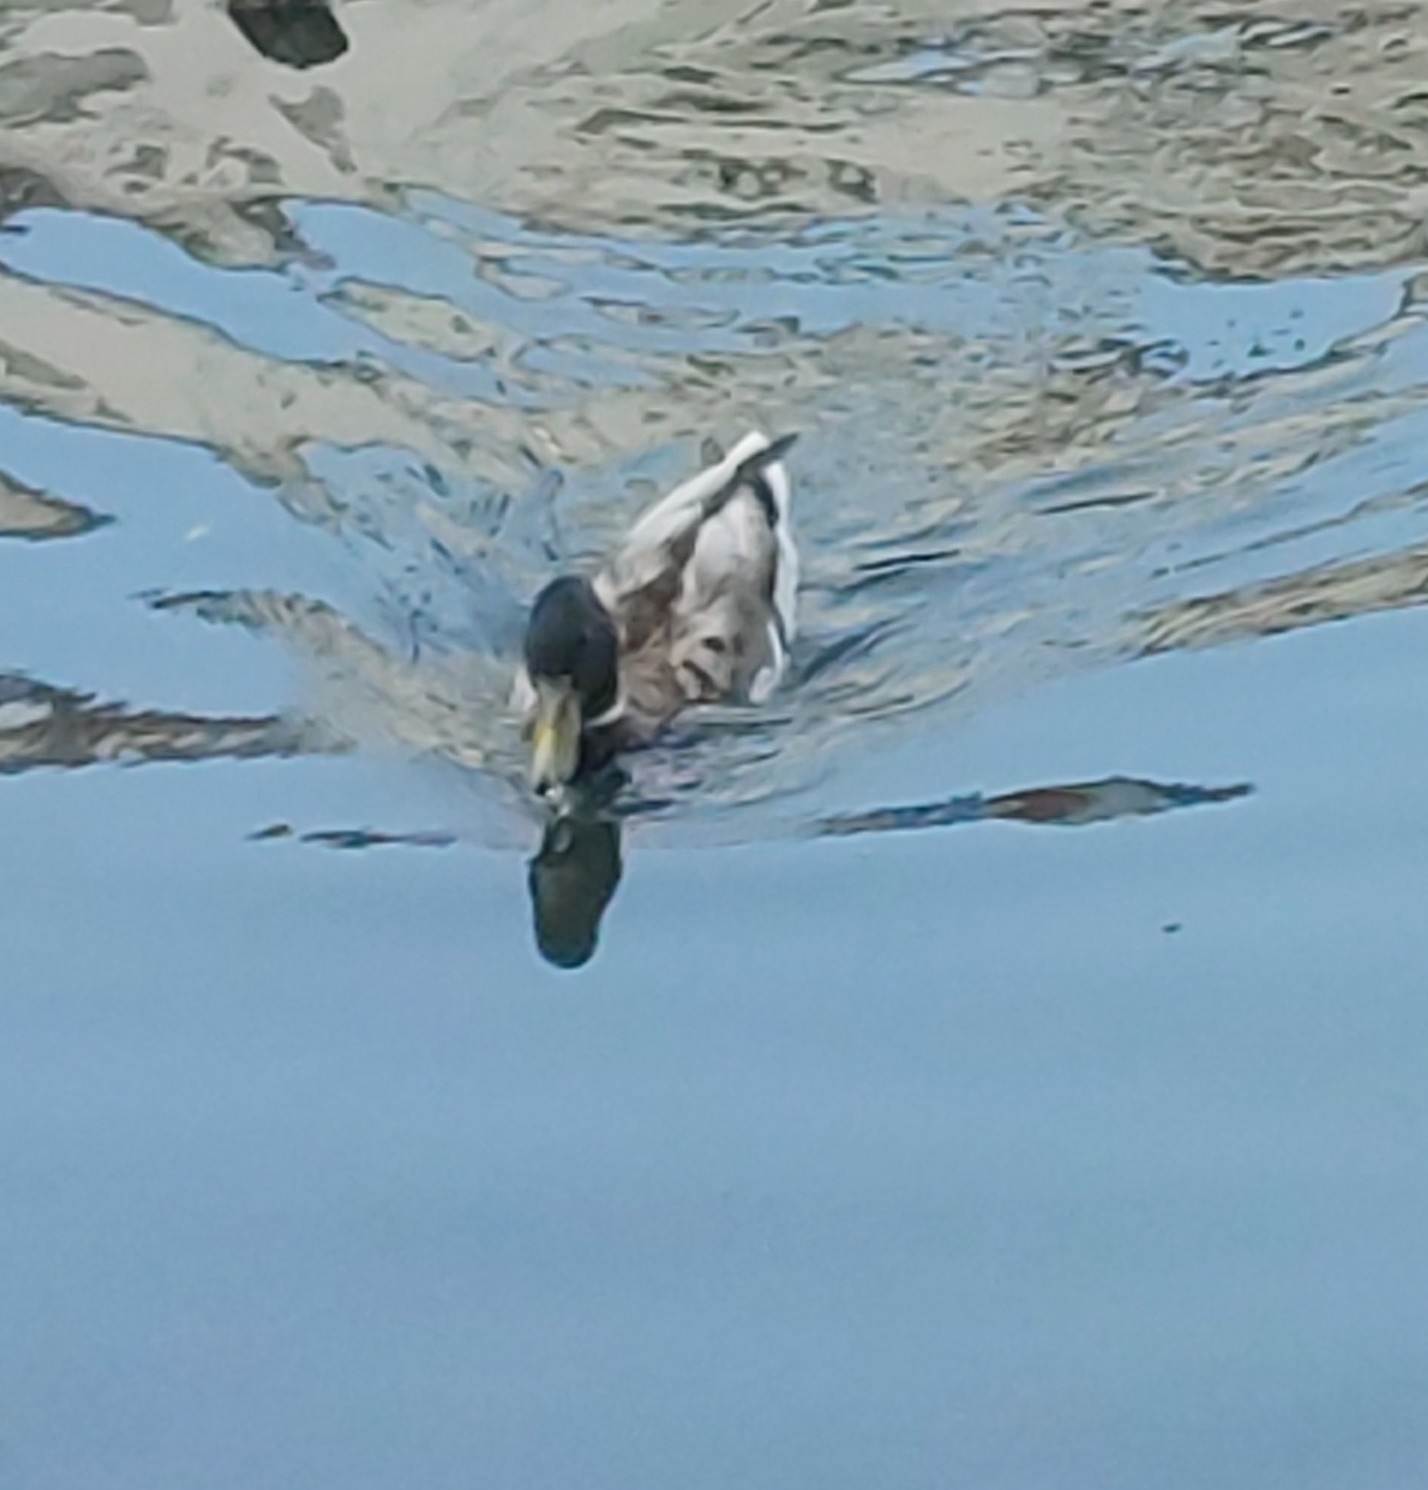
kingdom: Animalia
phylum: Chordata
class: Aves
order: Anseriformes
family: Anatidae
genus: Anas
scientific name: Anas platyrhynchos
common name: Mallard
